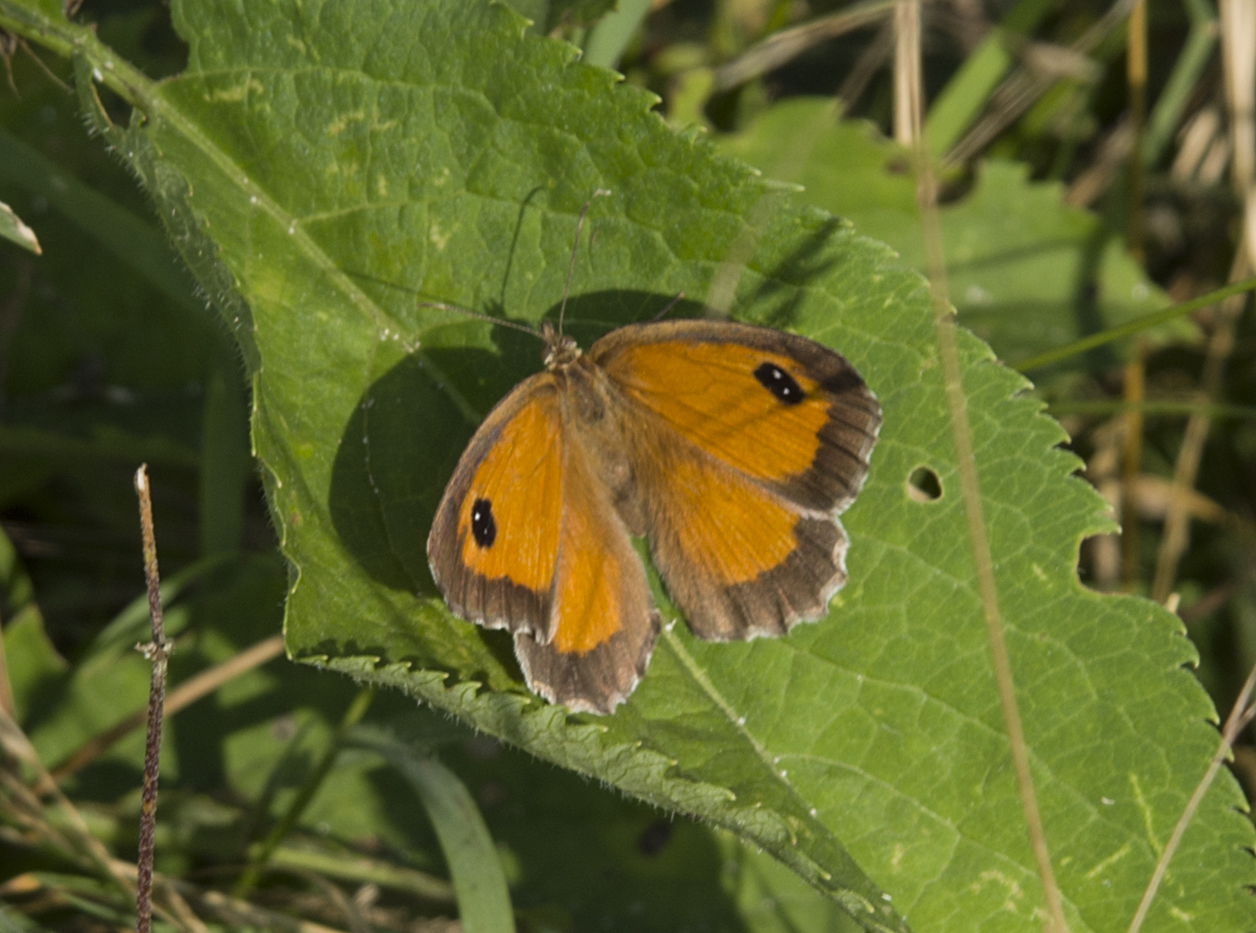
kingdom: Animalia
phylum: Arthropoda
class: Insecta
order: Lepidoptera
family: Nymphalidae
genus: Pyronia
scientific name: Pyronia tithonus
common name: Gatekeeper
